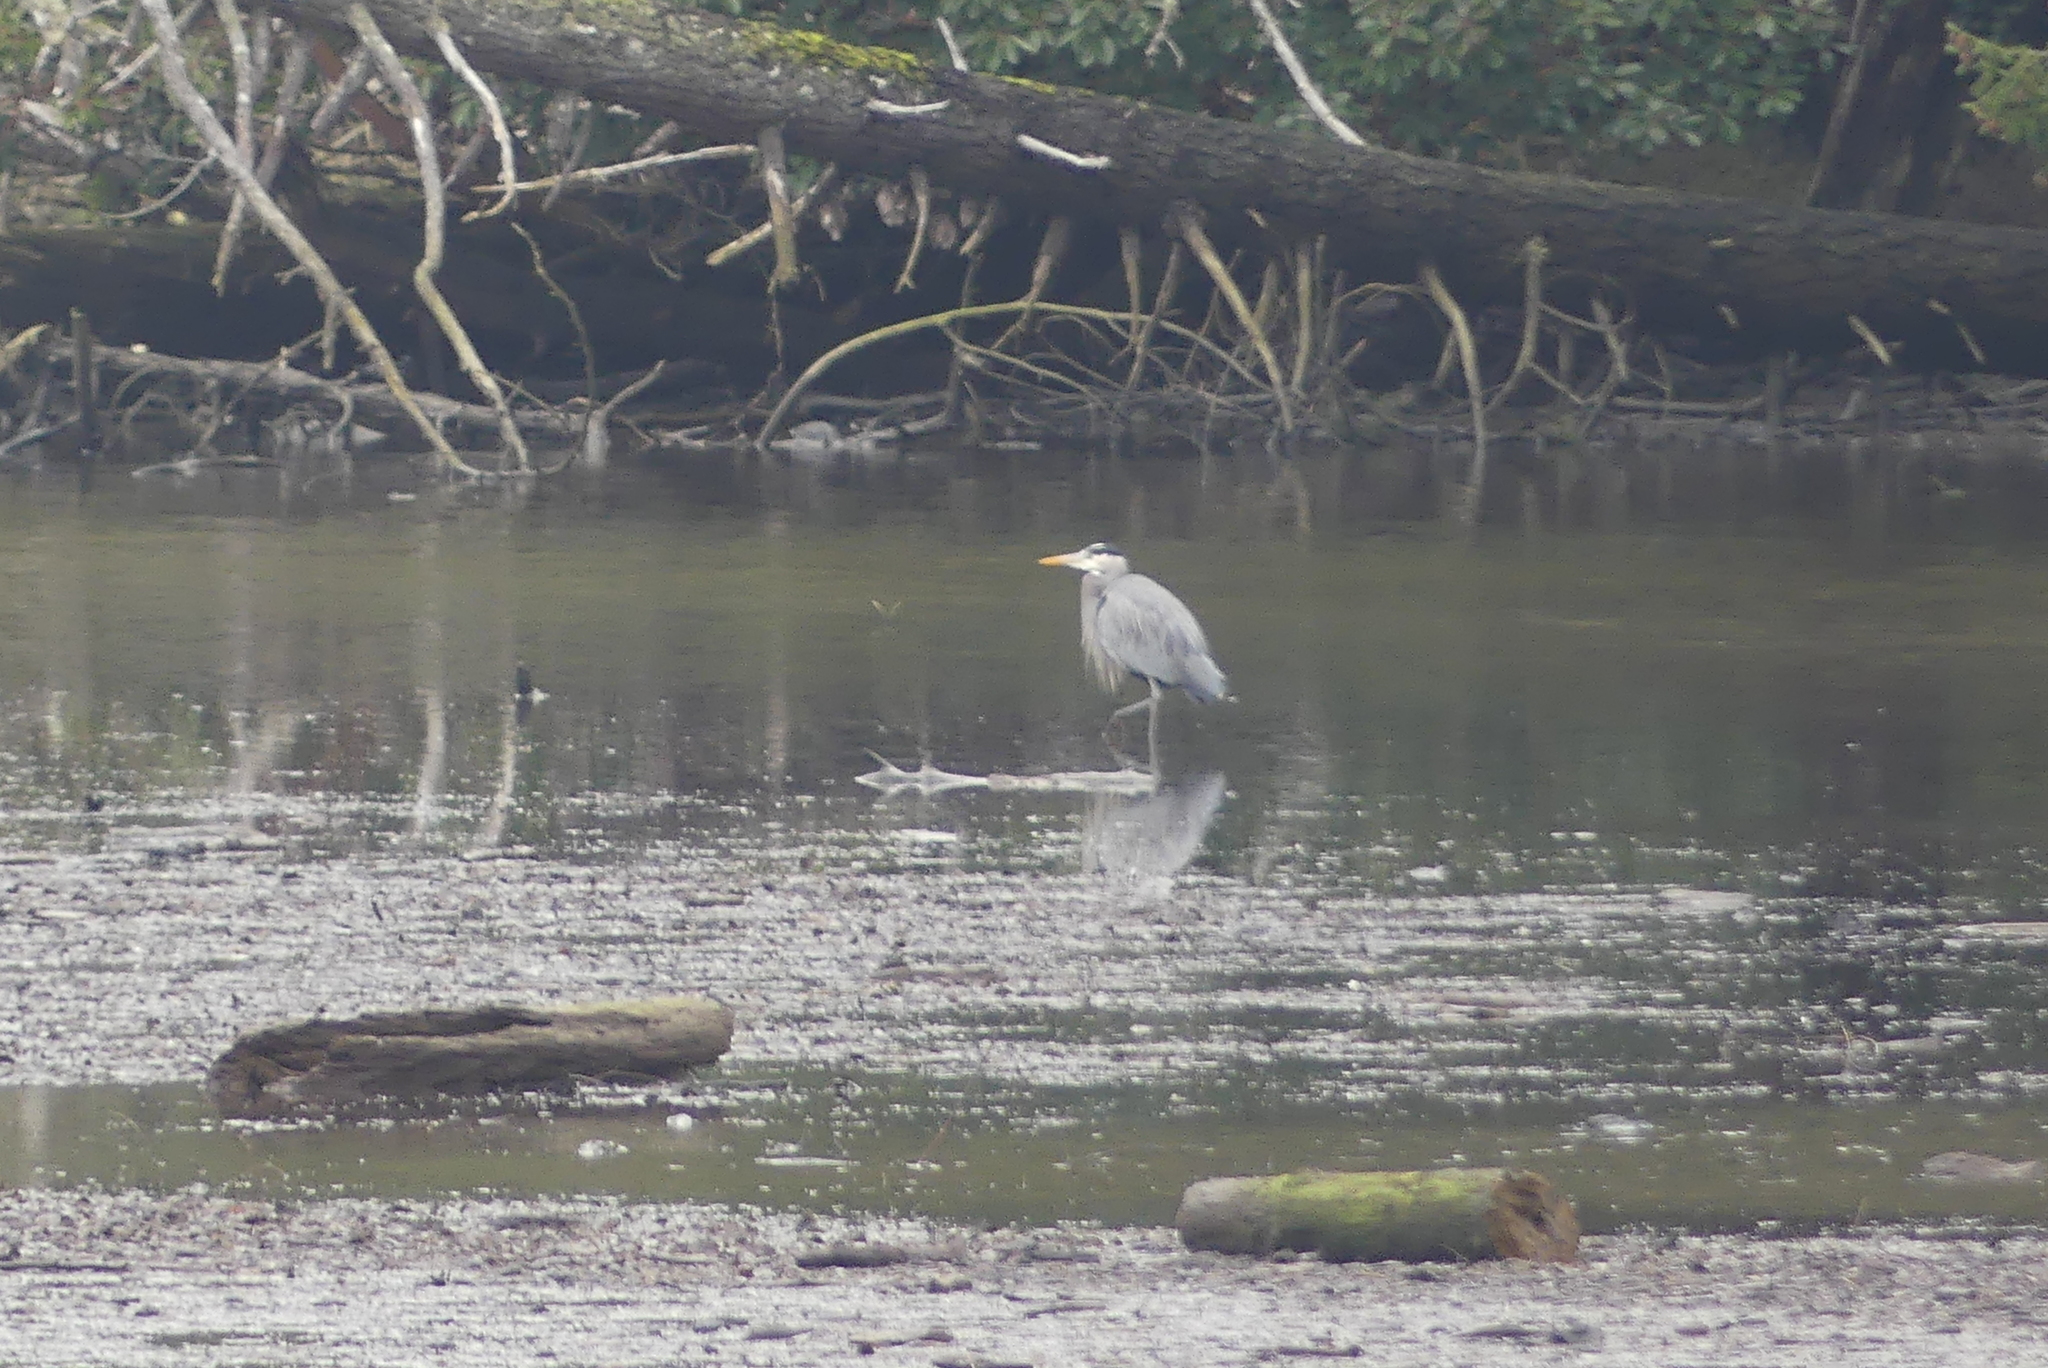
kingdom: Animalia
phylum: Chordata
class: Aves
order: Pelecaniformes
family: Ardeidae
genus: Ardea
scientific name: Ardea herodias
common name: Great blue heron
